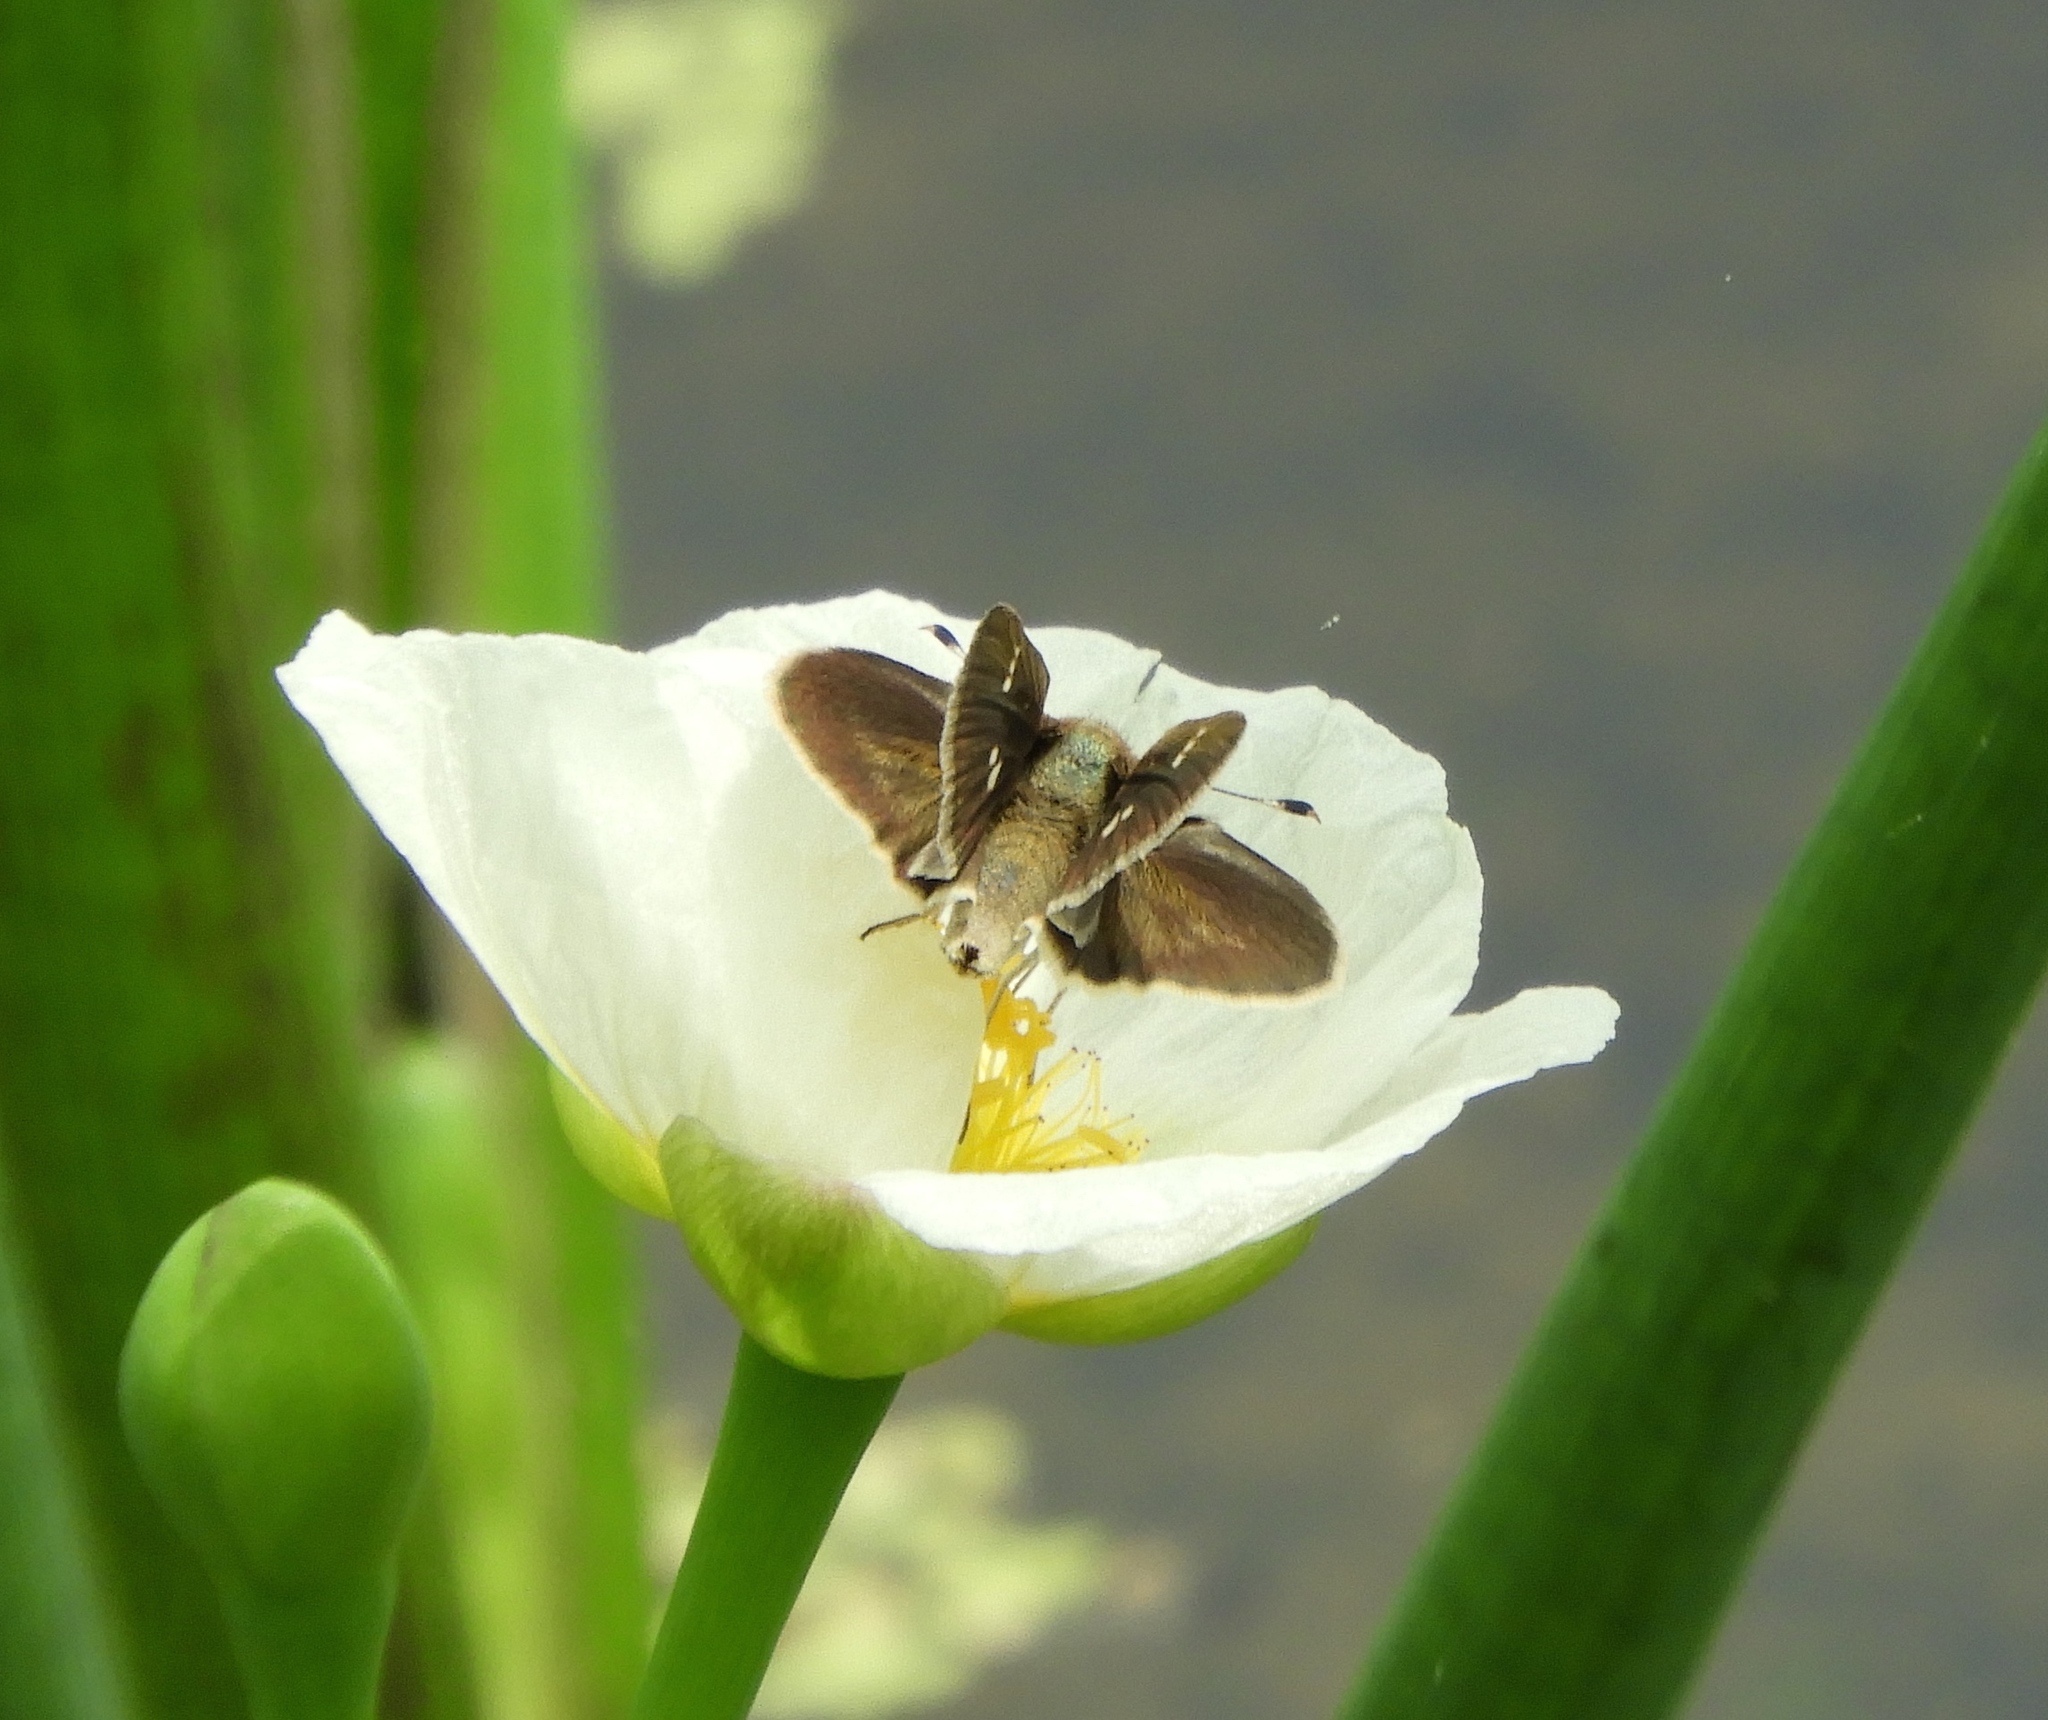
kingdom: Animalia
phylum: Arthropoda
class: Insecta
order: Lepidoptera
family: Hesperiidae
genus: Lerodea
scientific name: Lerodea eufala
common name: Eufala skipper
